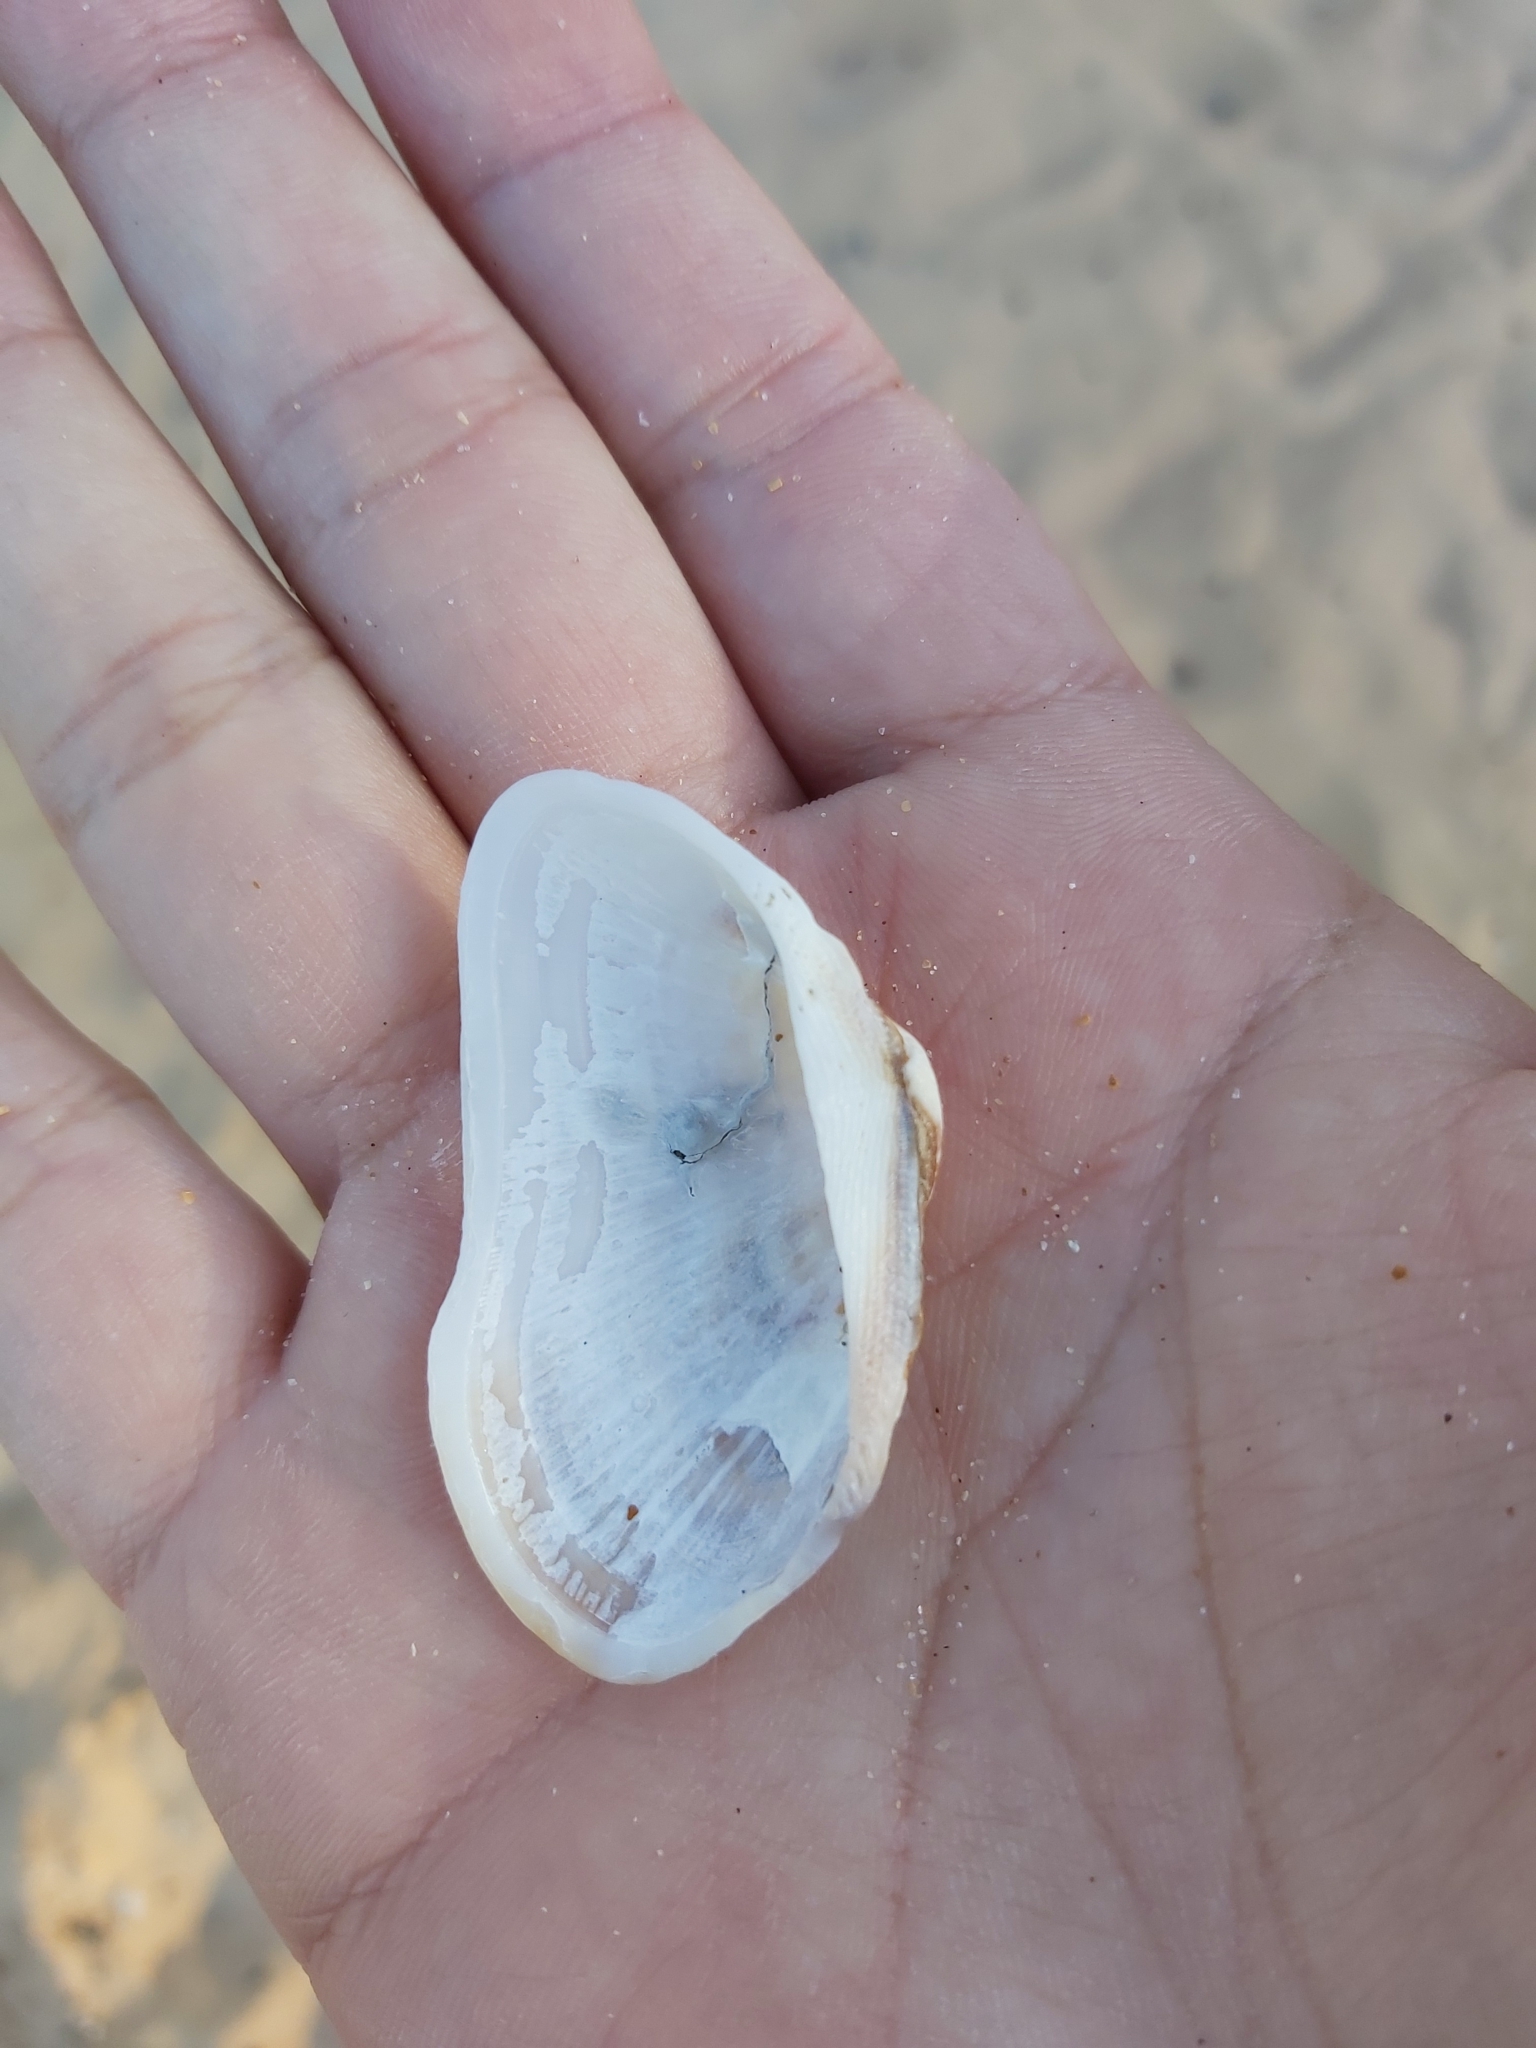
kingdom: Animalia
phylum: Mollusca
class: Bivalvia
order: Arcida
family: Arcidae
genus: Barbatia
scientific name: Barbatia pistachia
